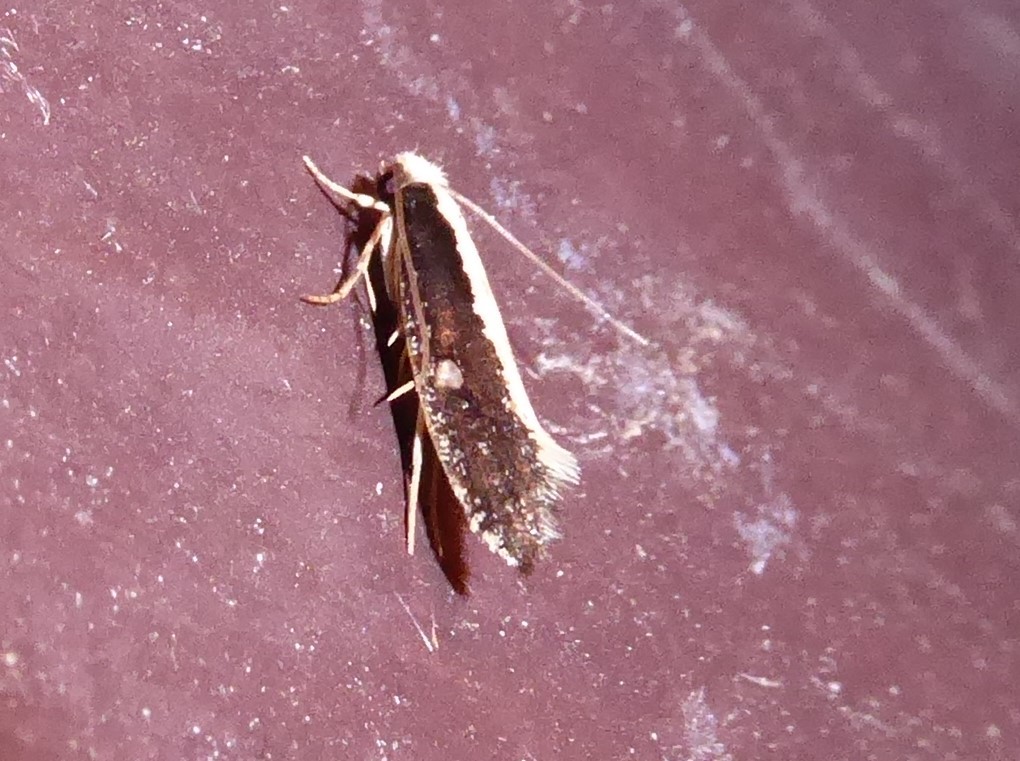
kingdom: Animalia
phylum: Arthropoda
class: Insecta
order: Lepidoptera
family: Tineidae
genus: Monopis
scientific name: Monopis ethelella
